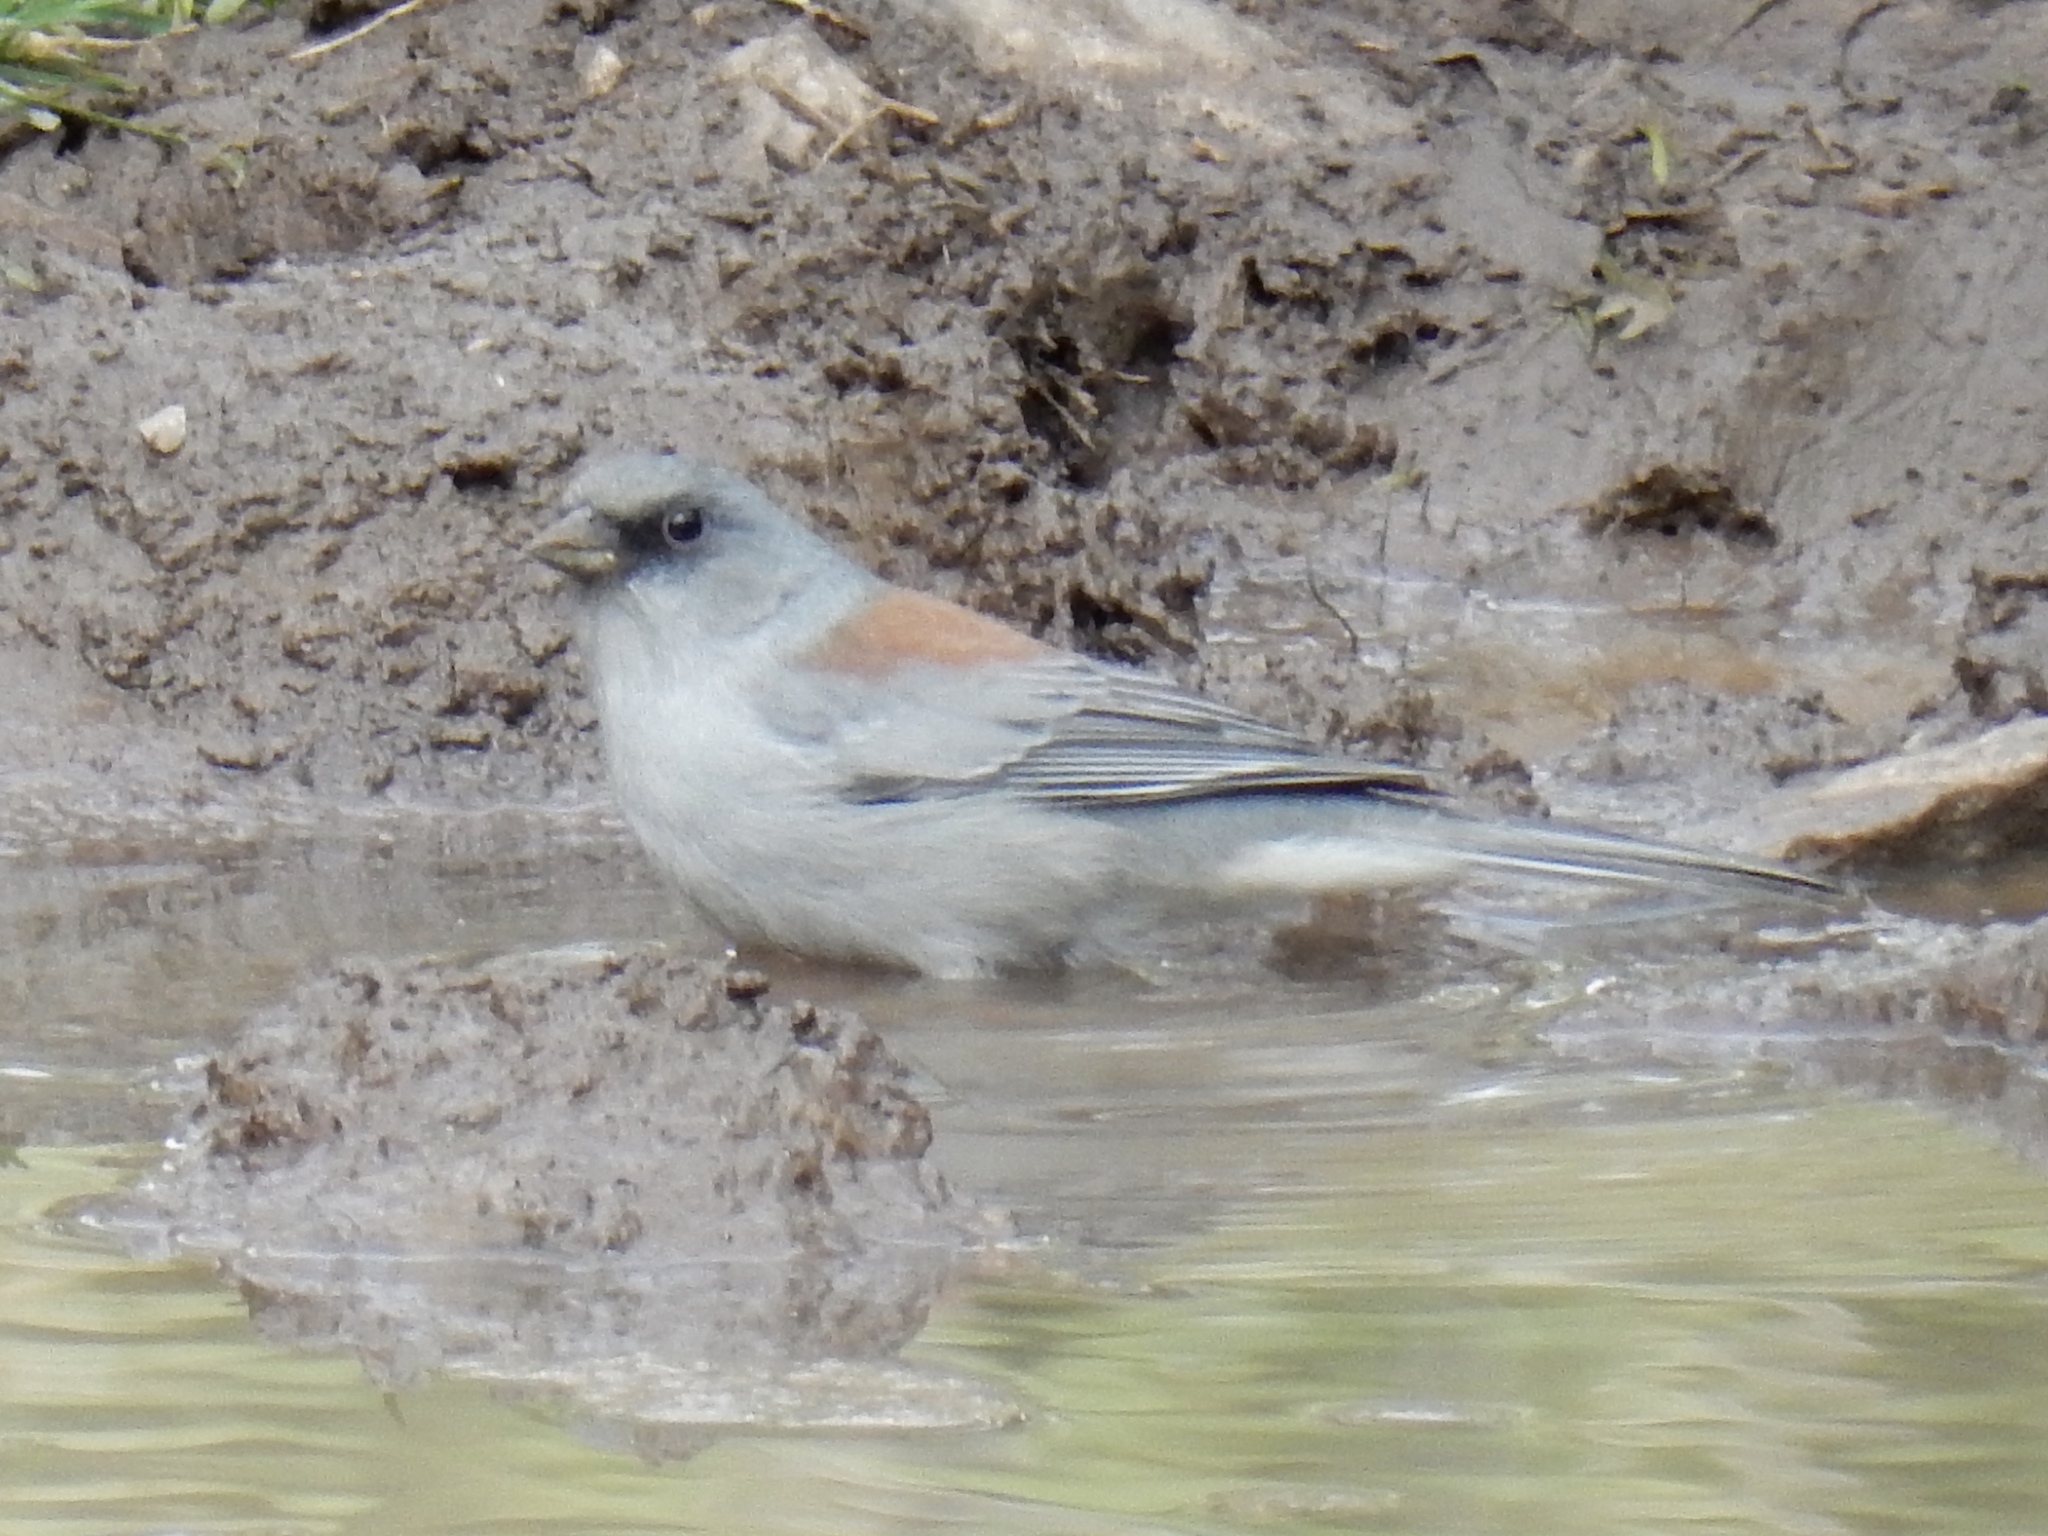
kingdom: Animalia
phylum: Chordata
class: Aves
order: Passeriformes
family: Passerellidae
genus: Junco
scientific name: Junco hyemalis
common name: Dark-eyed junco
